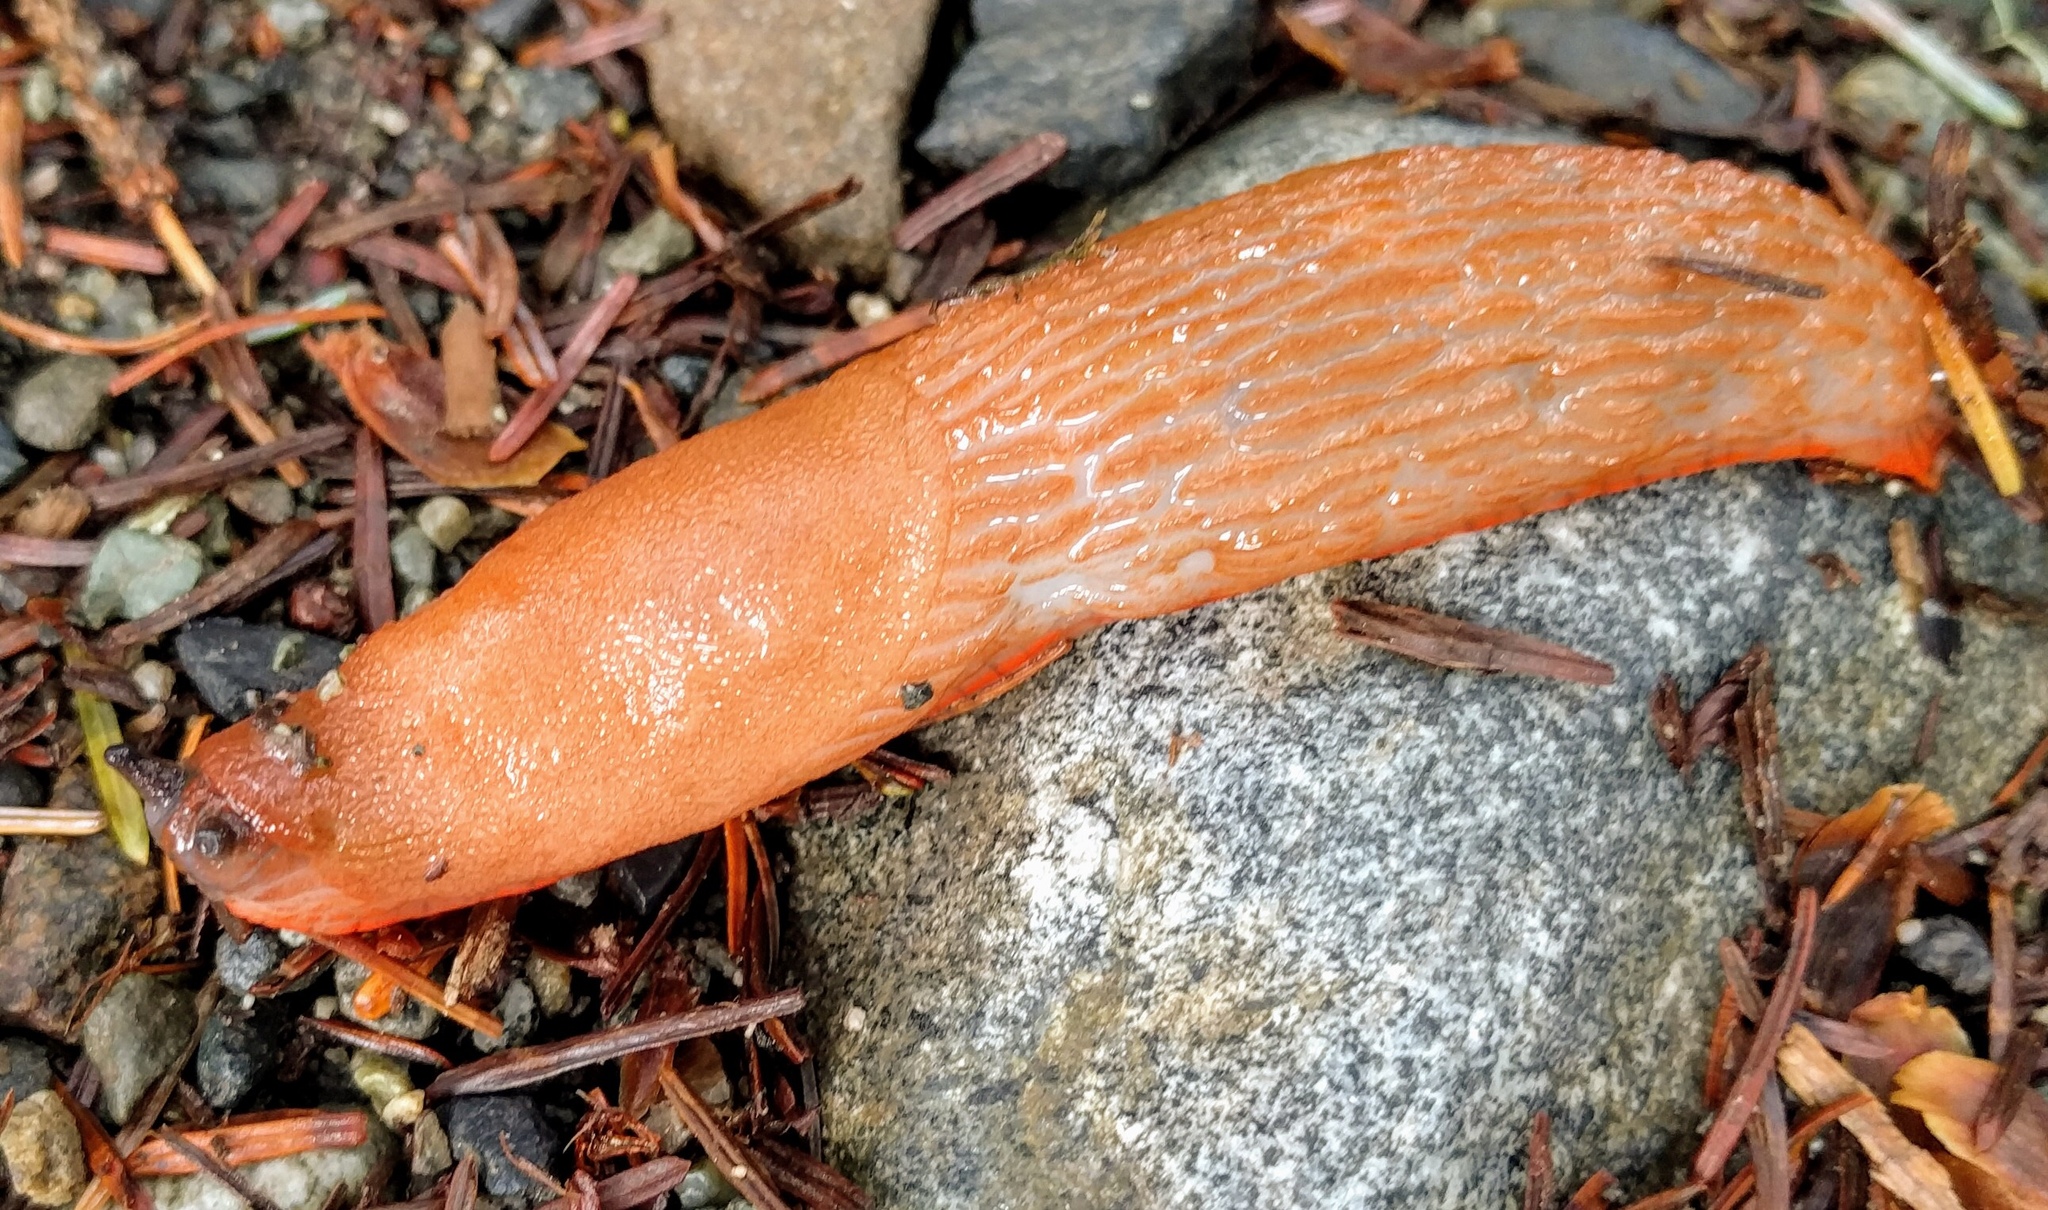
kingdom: Animalia
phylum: Mollusca
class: Gastropoda
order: Stylommatophora
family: Arionidae
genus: Arion
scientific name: Arion rufus
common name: Chocolate arion
